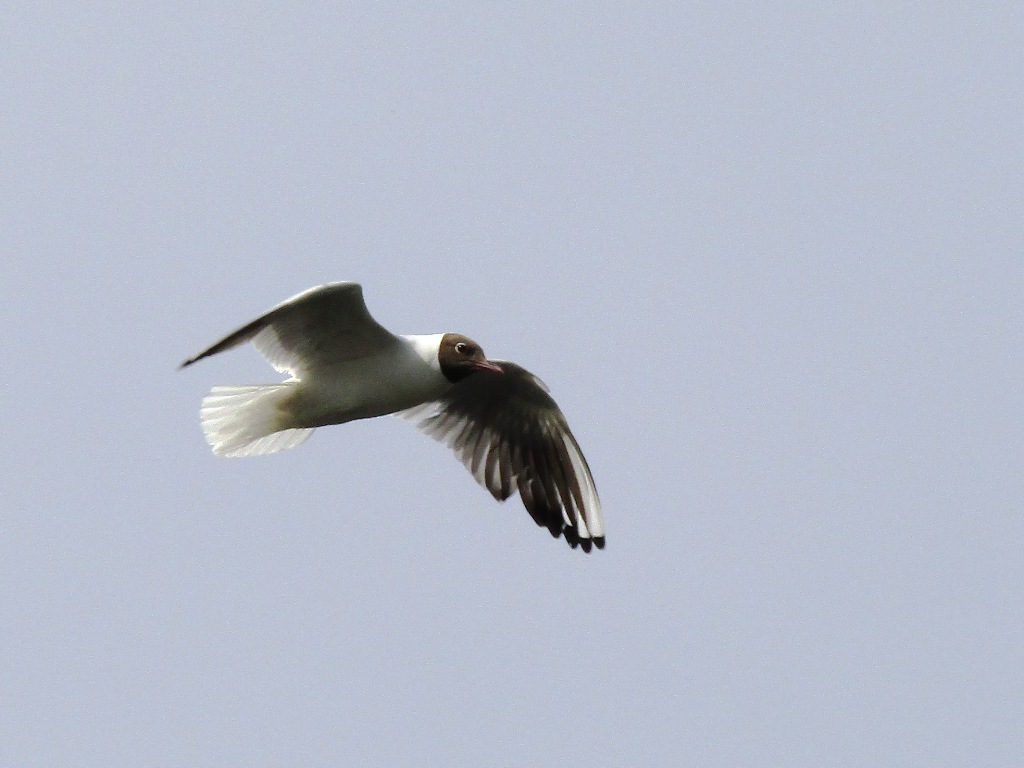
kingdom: Animalia
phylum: Chordata
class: Aves
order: Charadriiformes
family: Laridae
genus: Chroicocephalus
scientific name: Chroicocephalus ridibundus
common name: Black-headed gull
